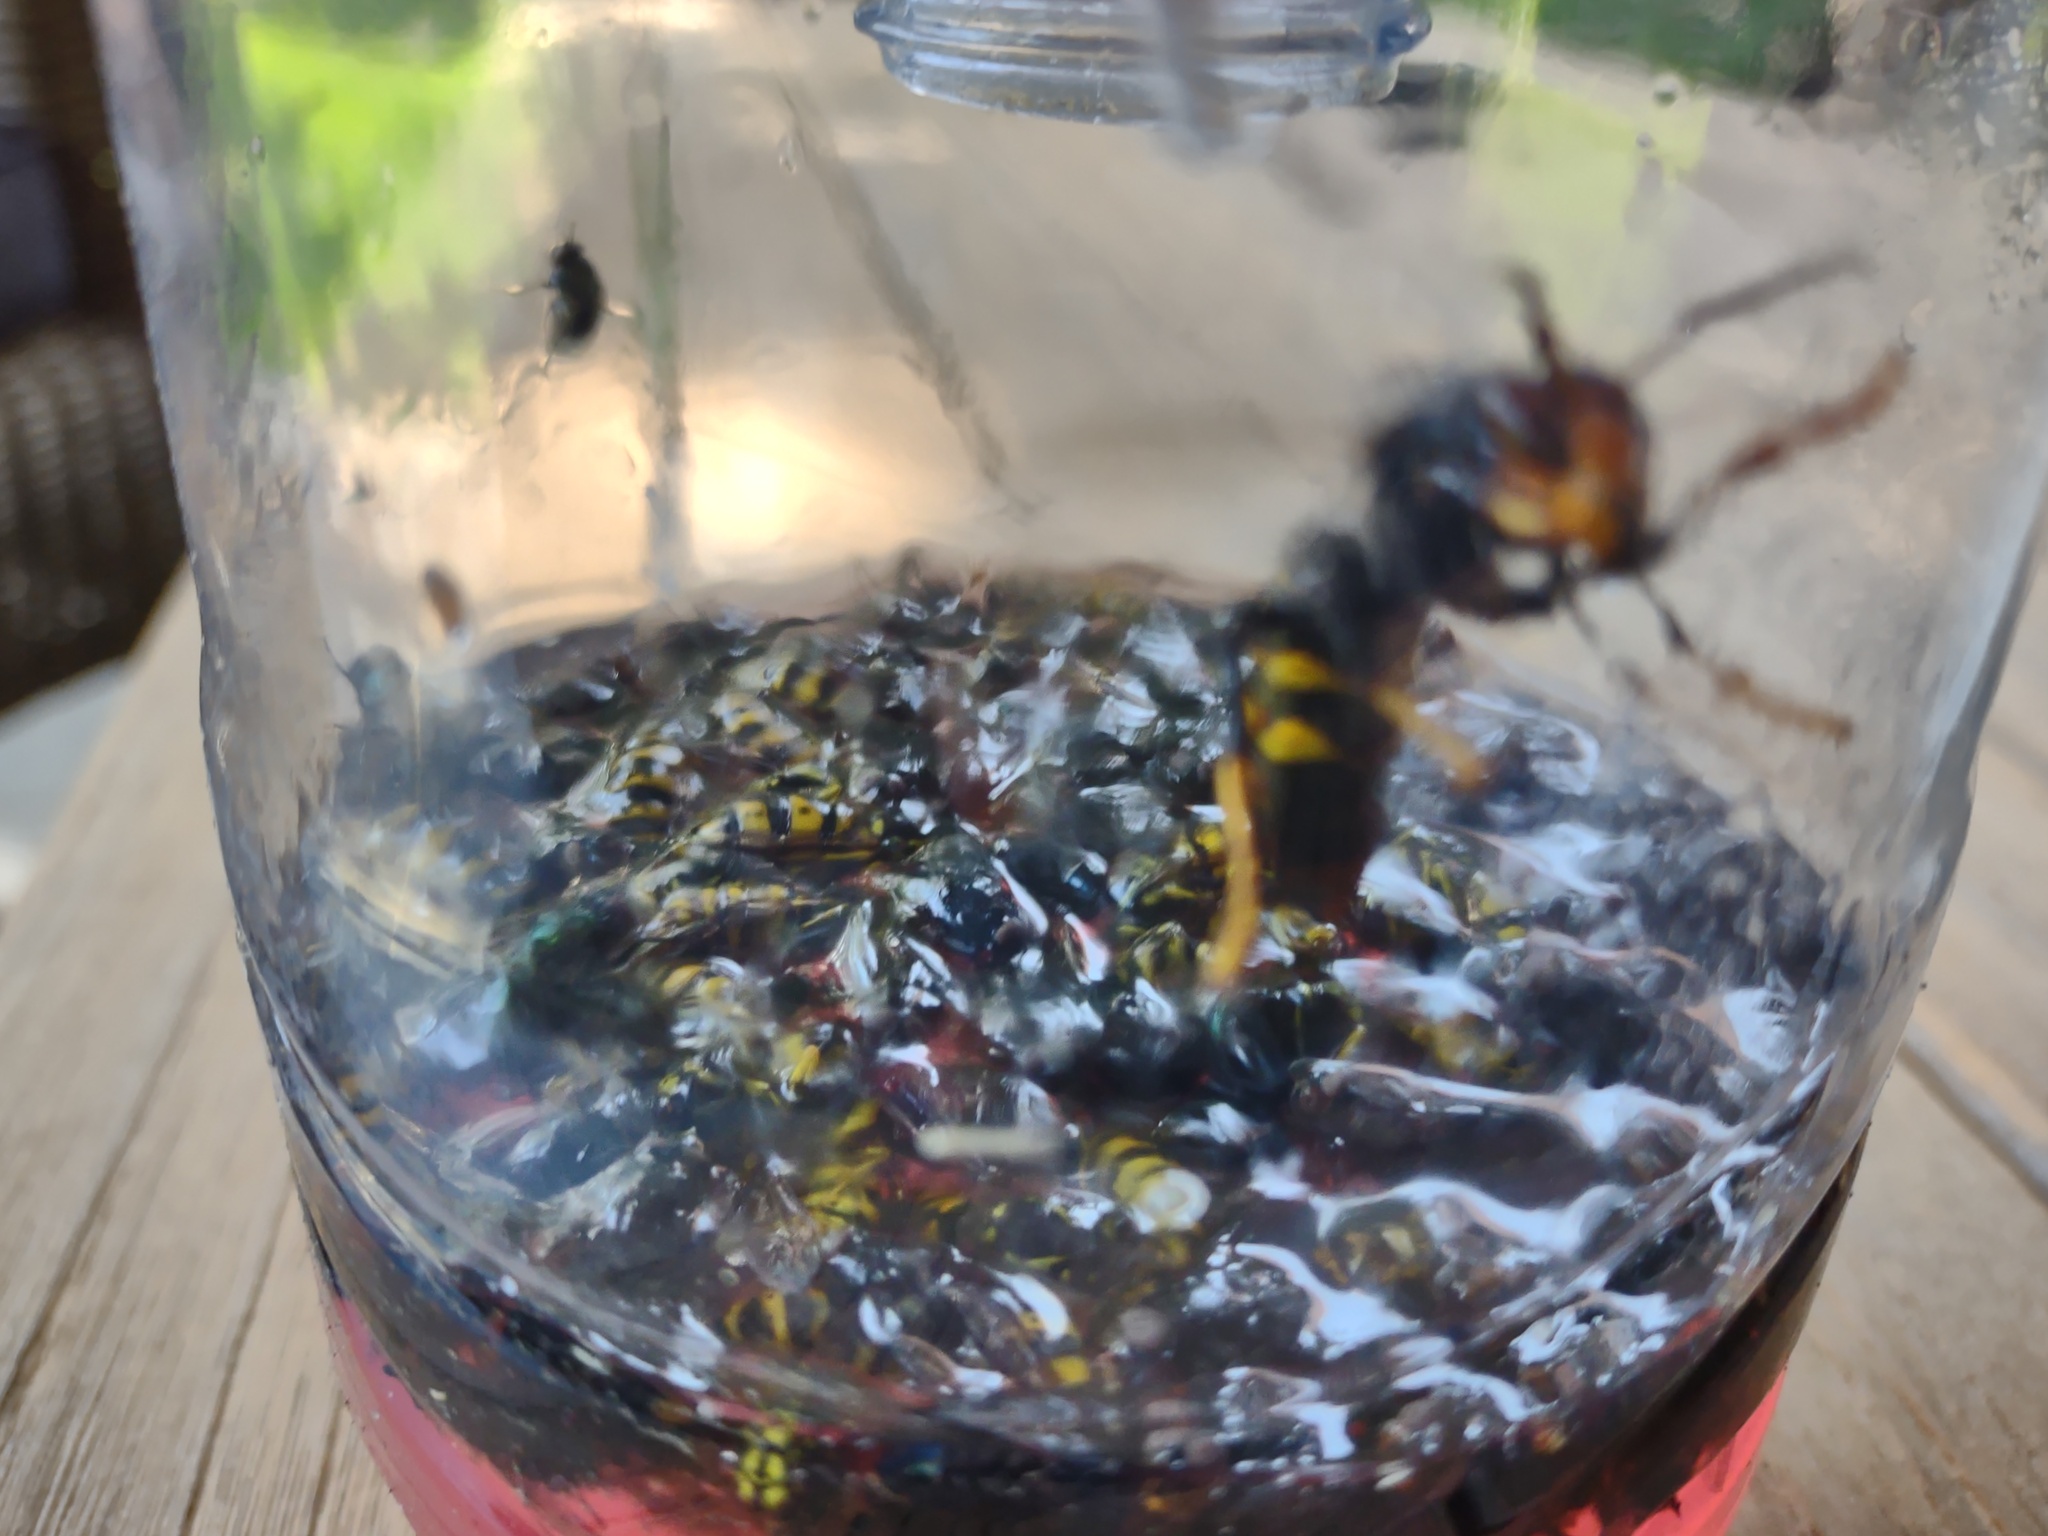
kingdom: Animalia
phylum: Arthropoda
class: Insecta
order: Hymenoptera
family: Vespidae
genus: Vespa
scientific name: Vespa velutina
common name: Asian hornet
